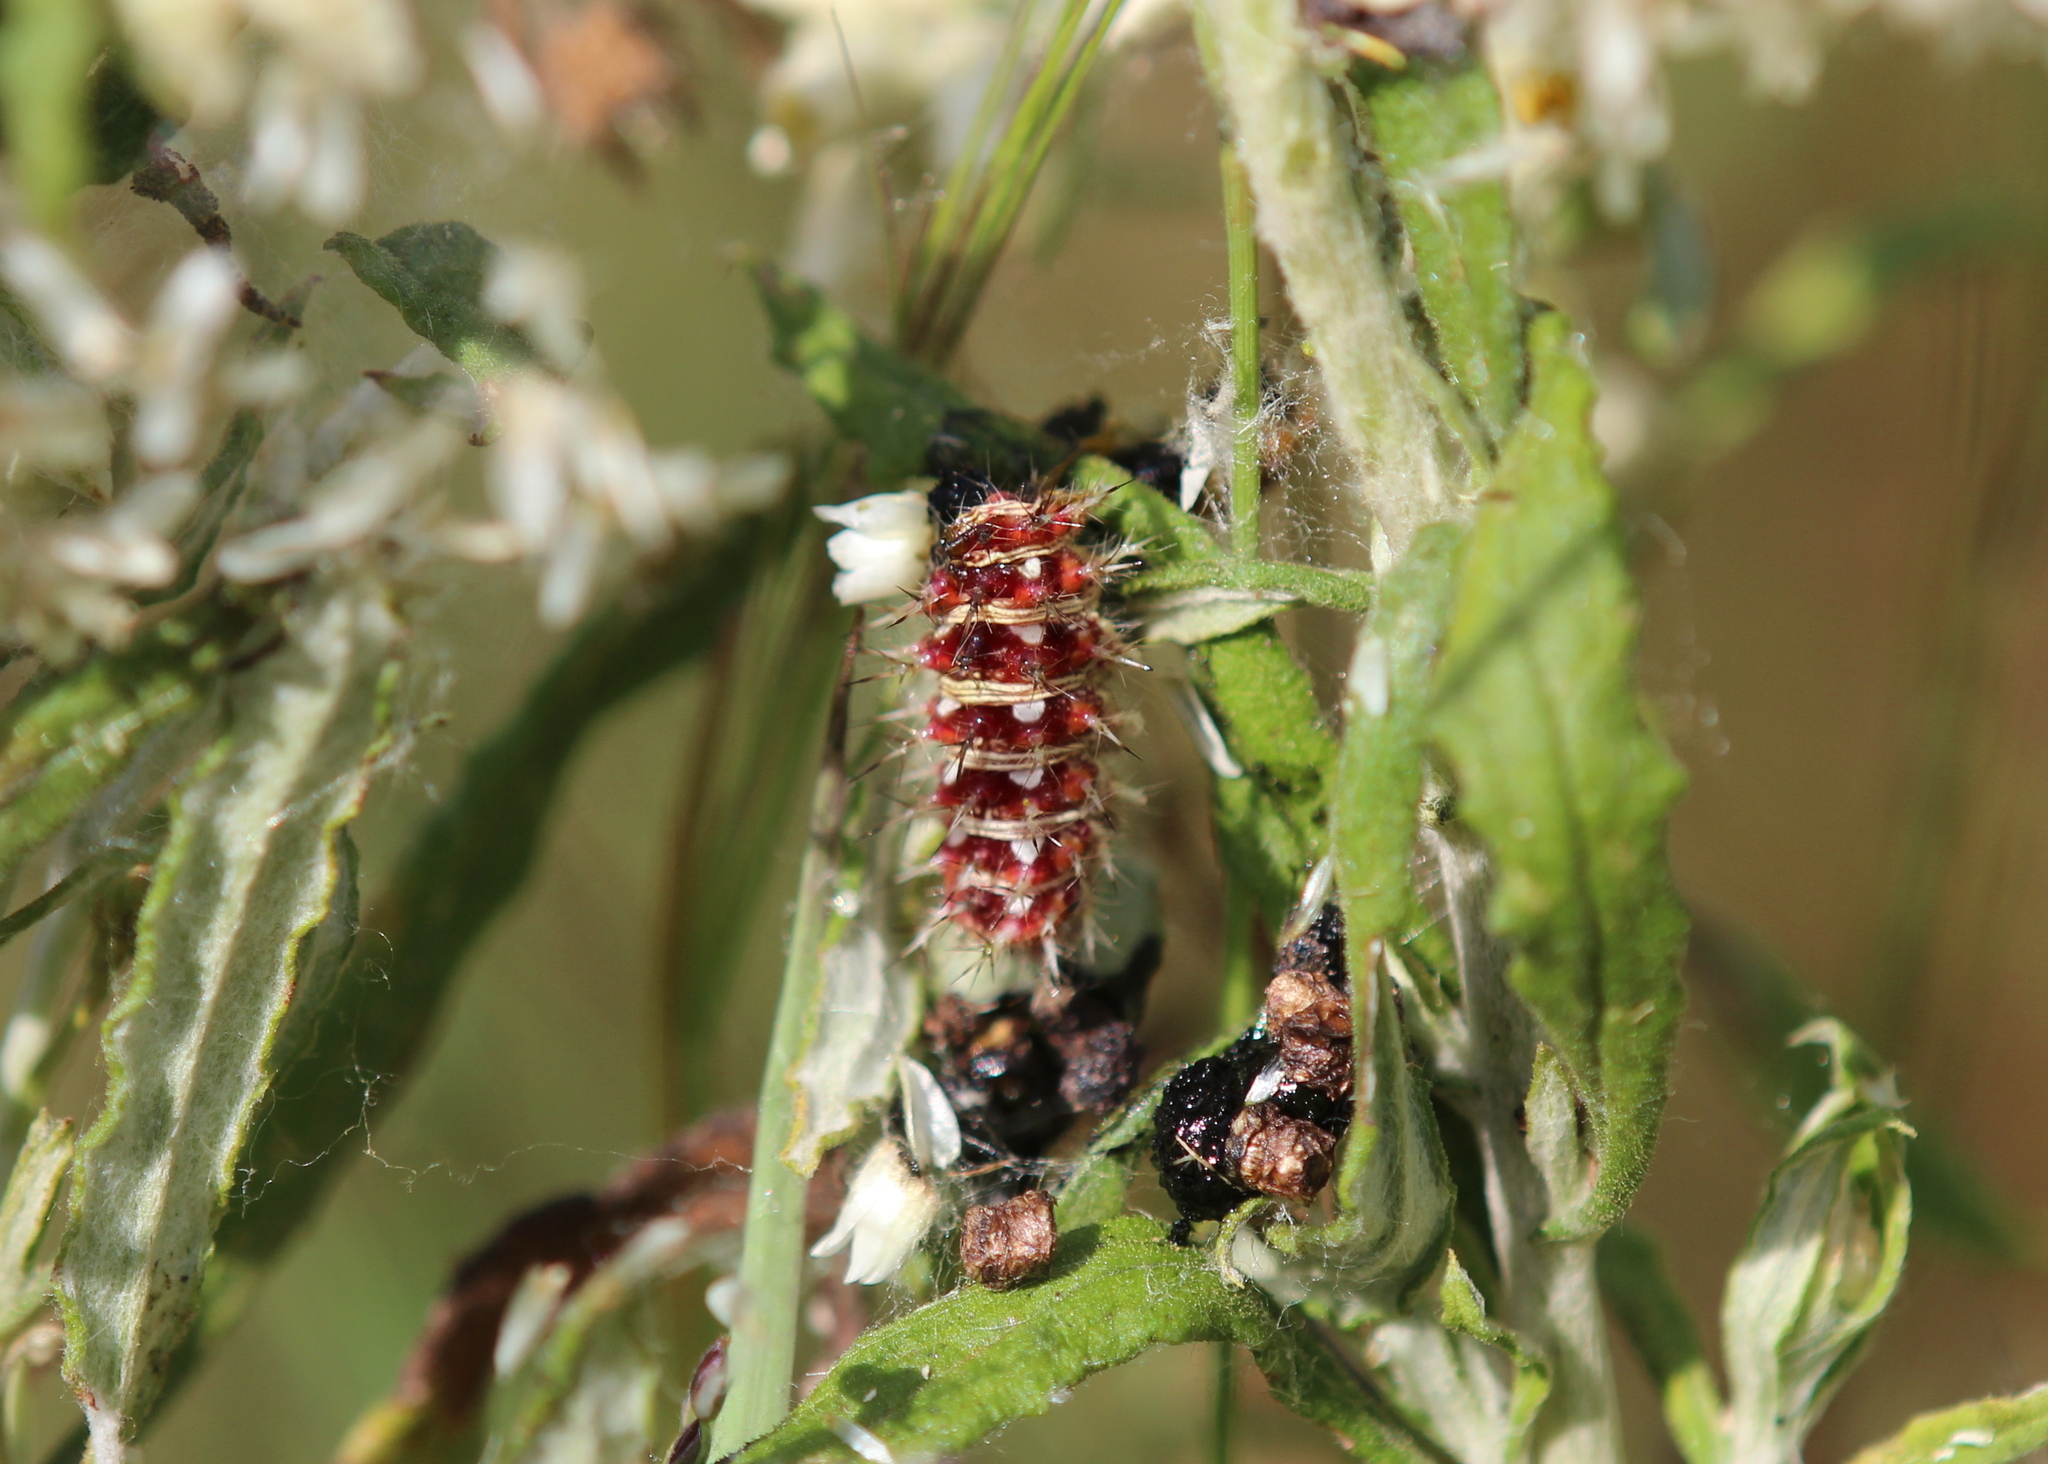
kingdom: Animalia
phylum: Arthropoda
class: Insecta
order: Lepidoptera
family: Nymphalidae
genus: Vanessa
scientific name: Vanessa virginiensis
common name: American lady
